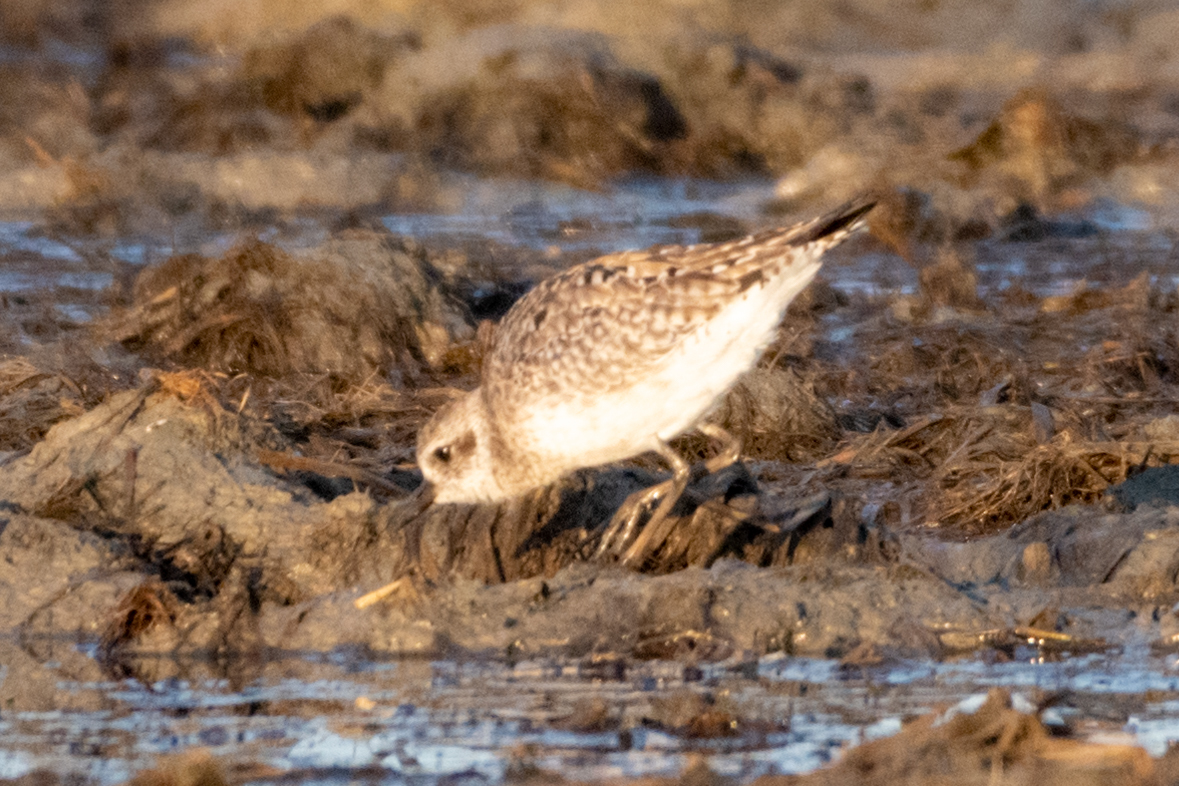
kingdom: Animalia
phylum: Chordata
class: Aves
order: Charadriiformes
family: Charadriidae
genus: Pluvialis
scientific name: Pluvialis squatarola
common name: Grey plover
